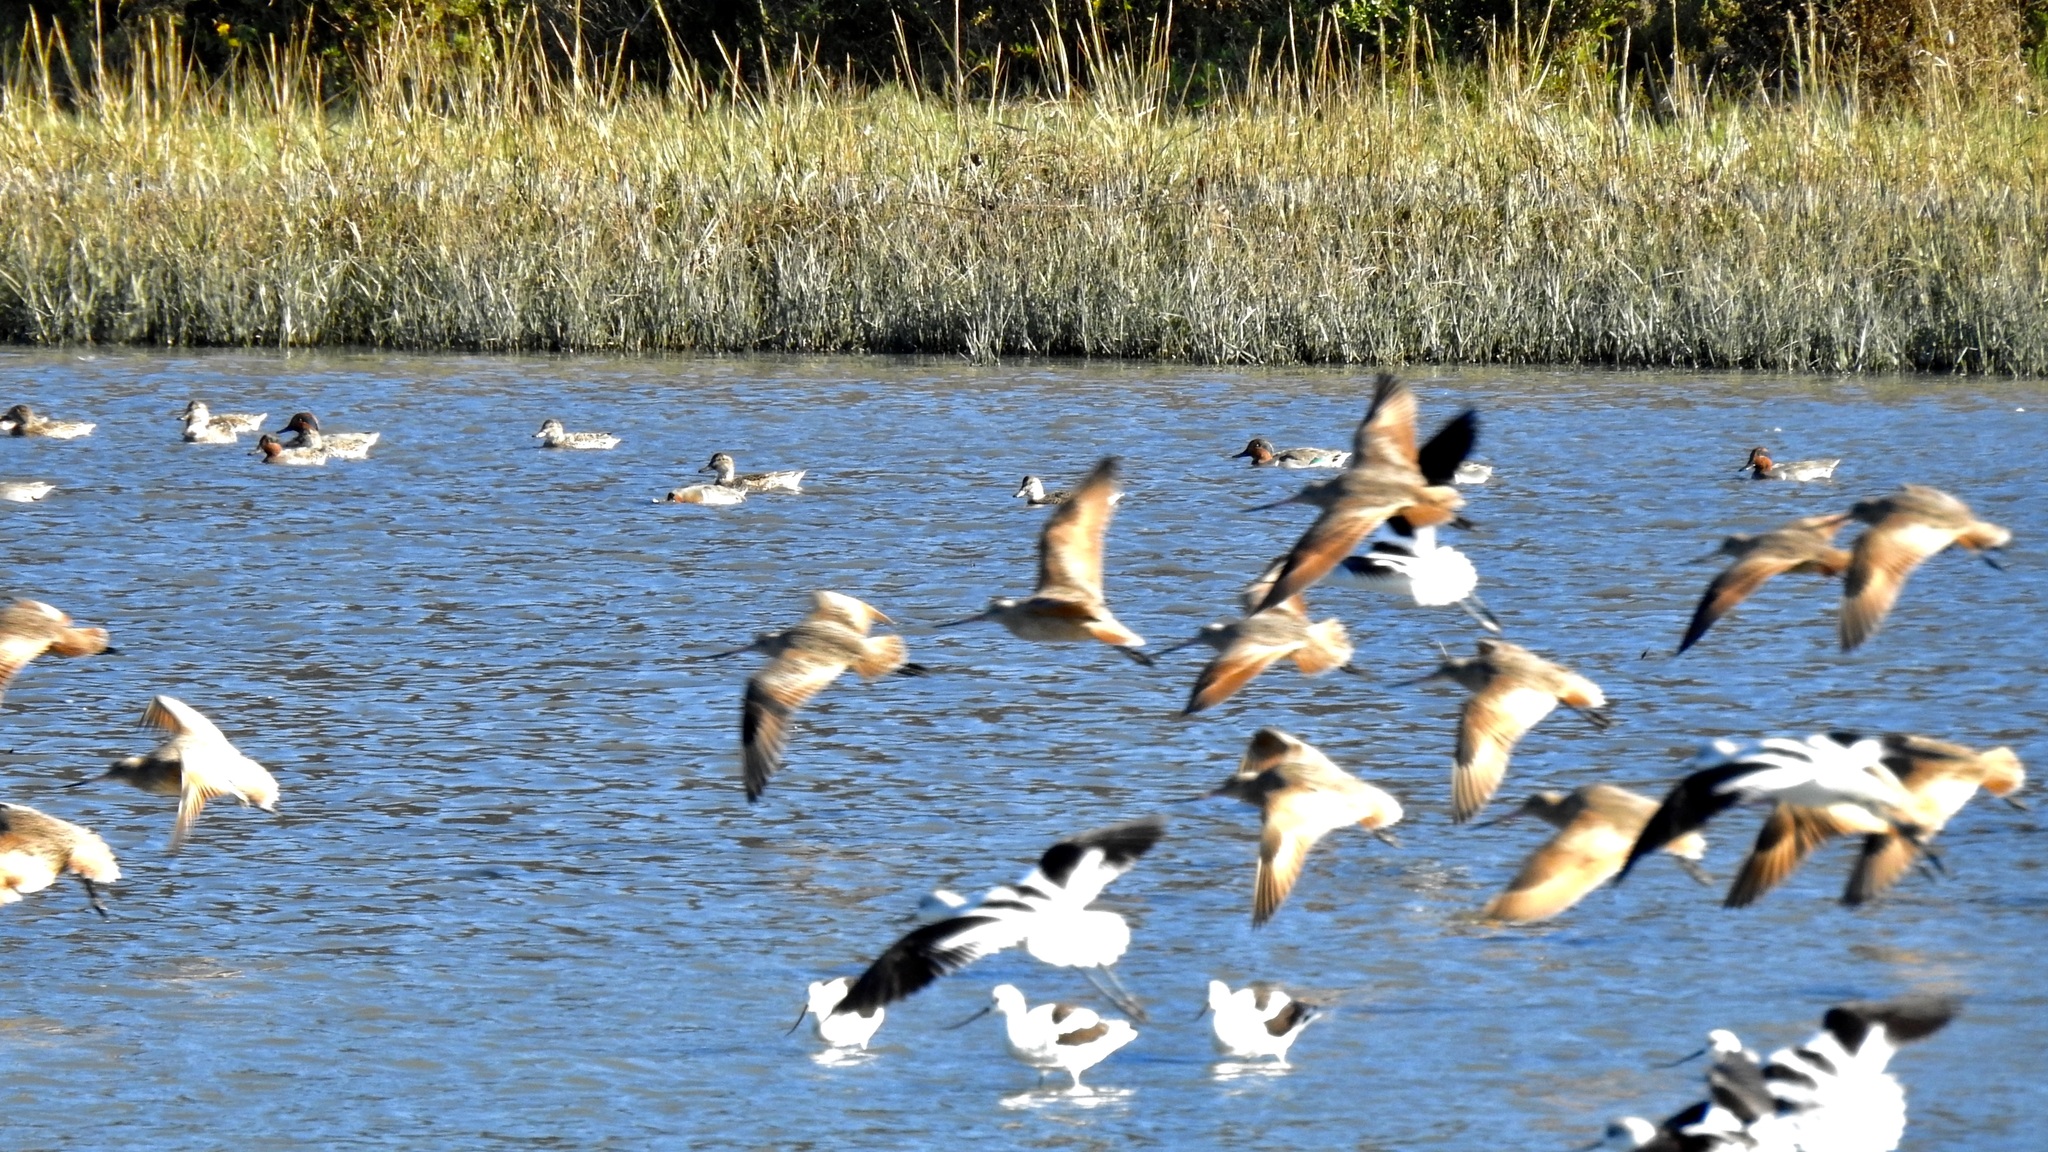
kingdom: Animalia
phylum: Chordata
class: Aves
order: Charadriiformes
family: Scolopacidae
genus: Limosa
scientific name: Limosa fedoa
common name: Marbled godwit
